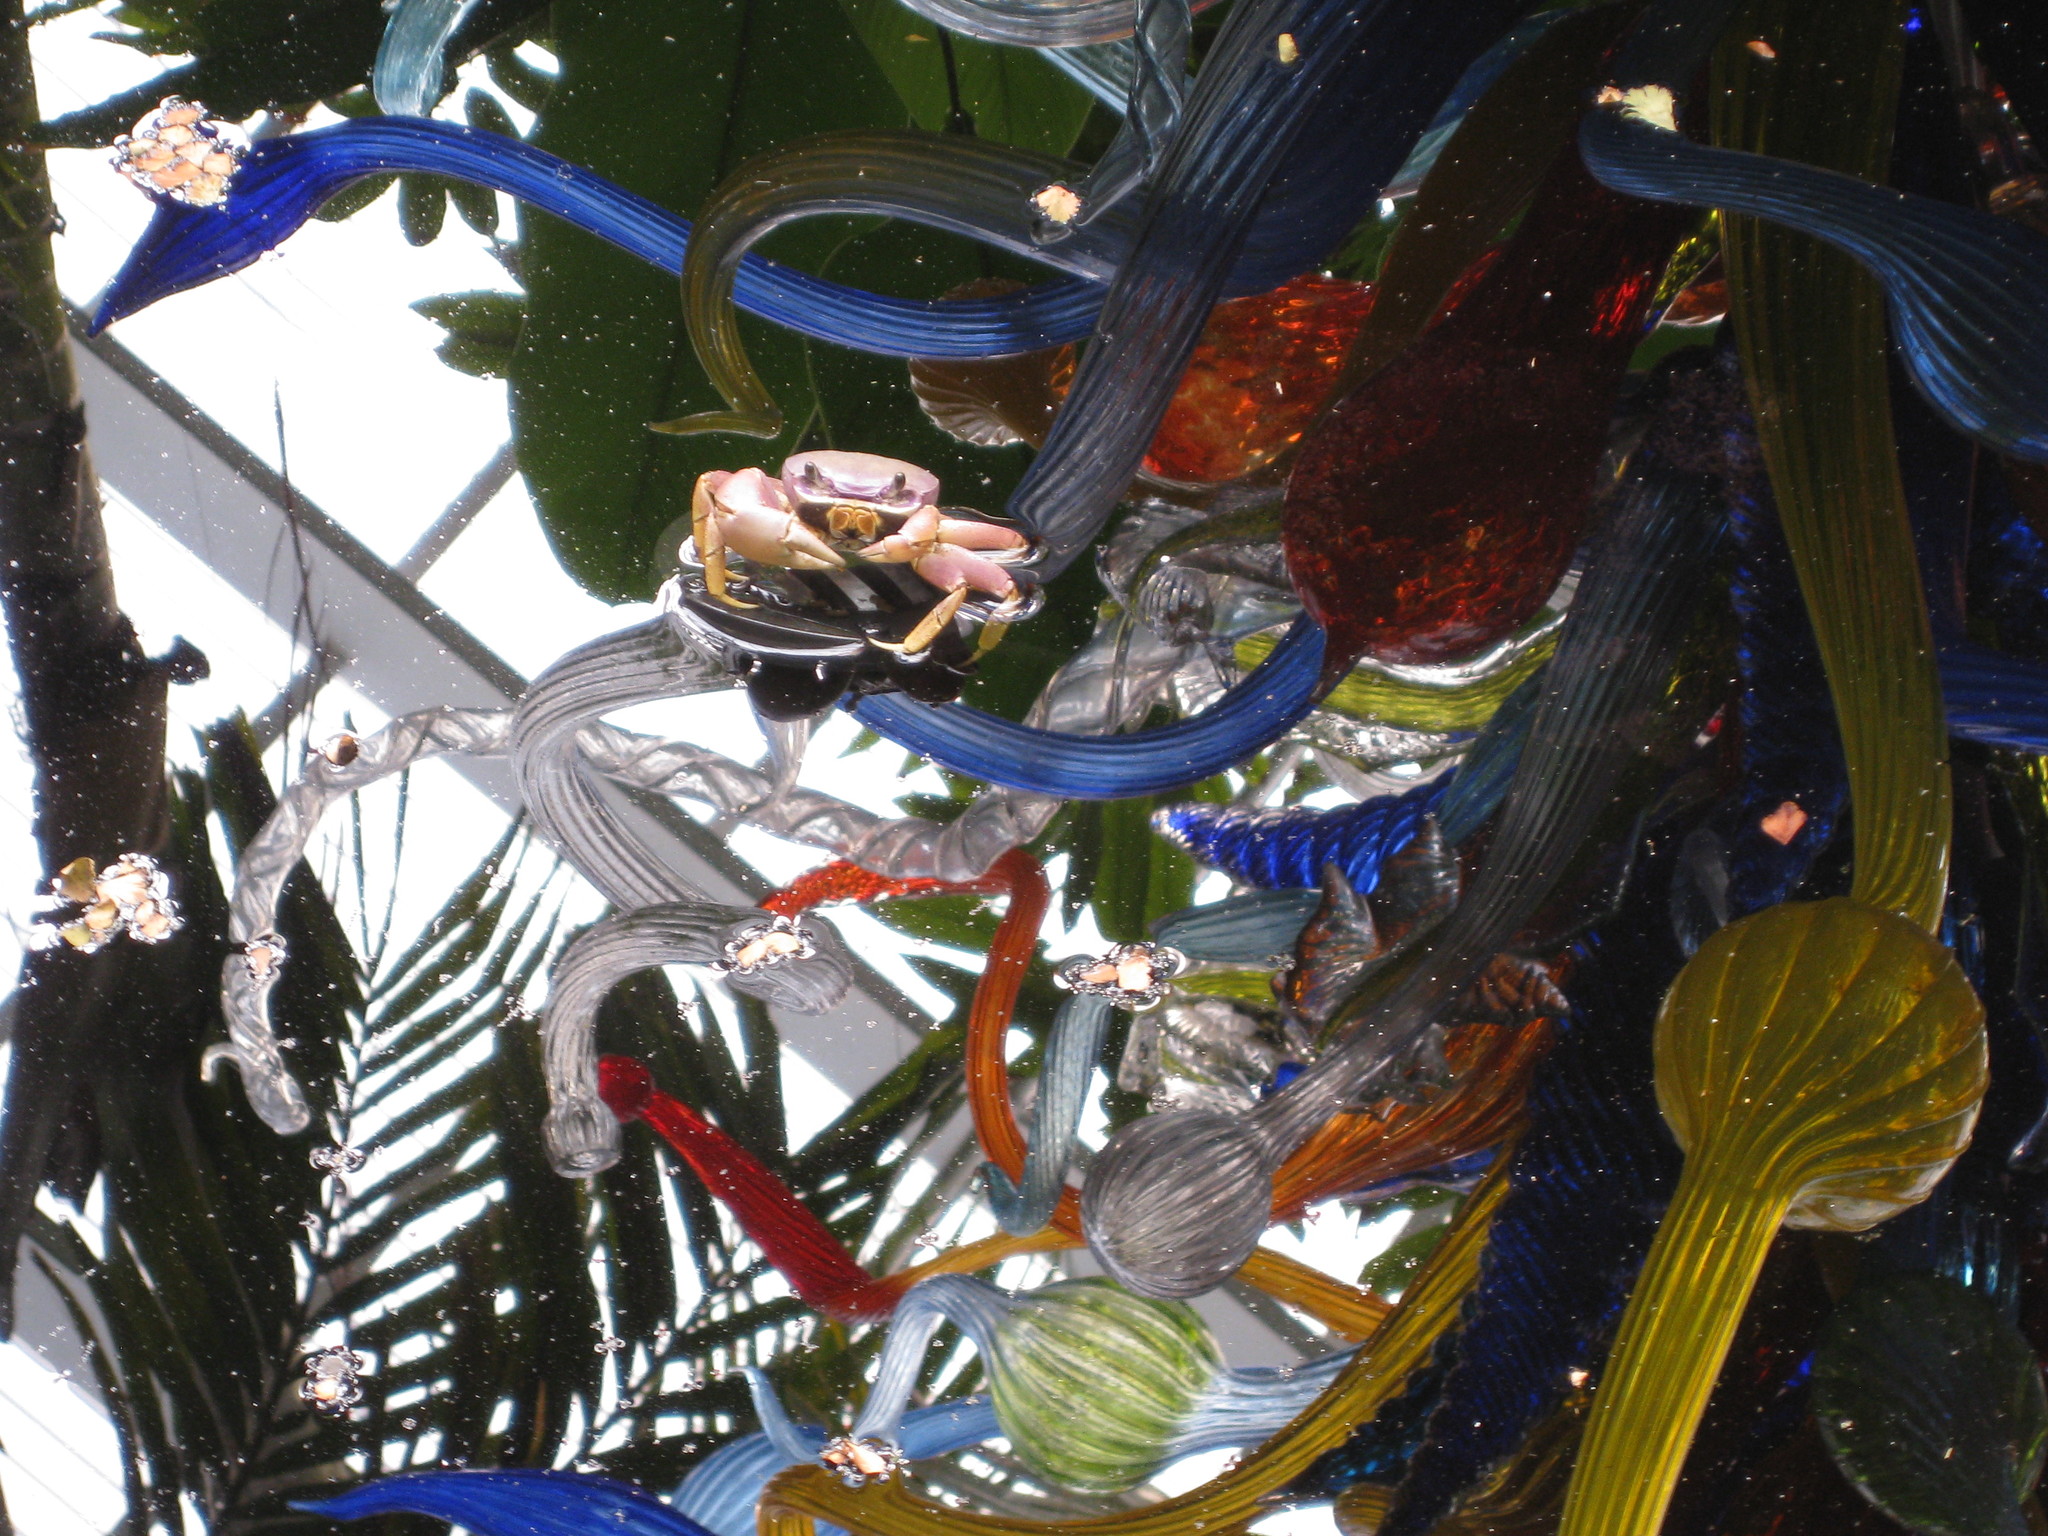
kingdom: Animalia
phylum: Arthropoda
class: Malacostraca
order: Decapoda
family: Gecarcinidae
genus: Cardisoma
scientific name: Cardisoma guanhumi
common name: Great land crab
